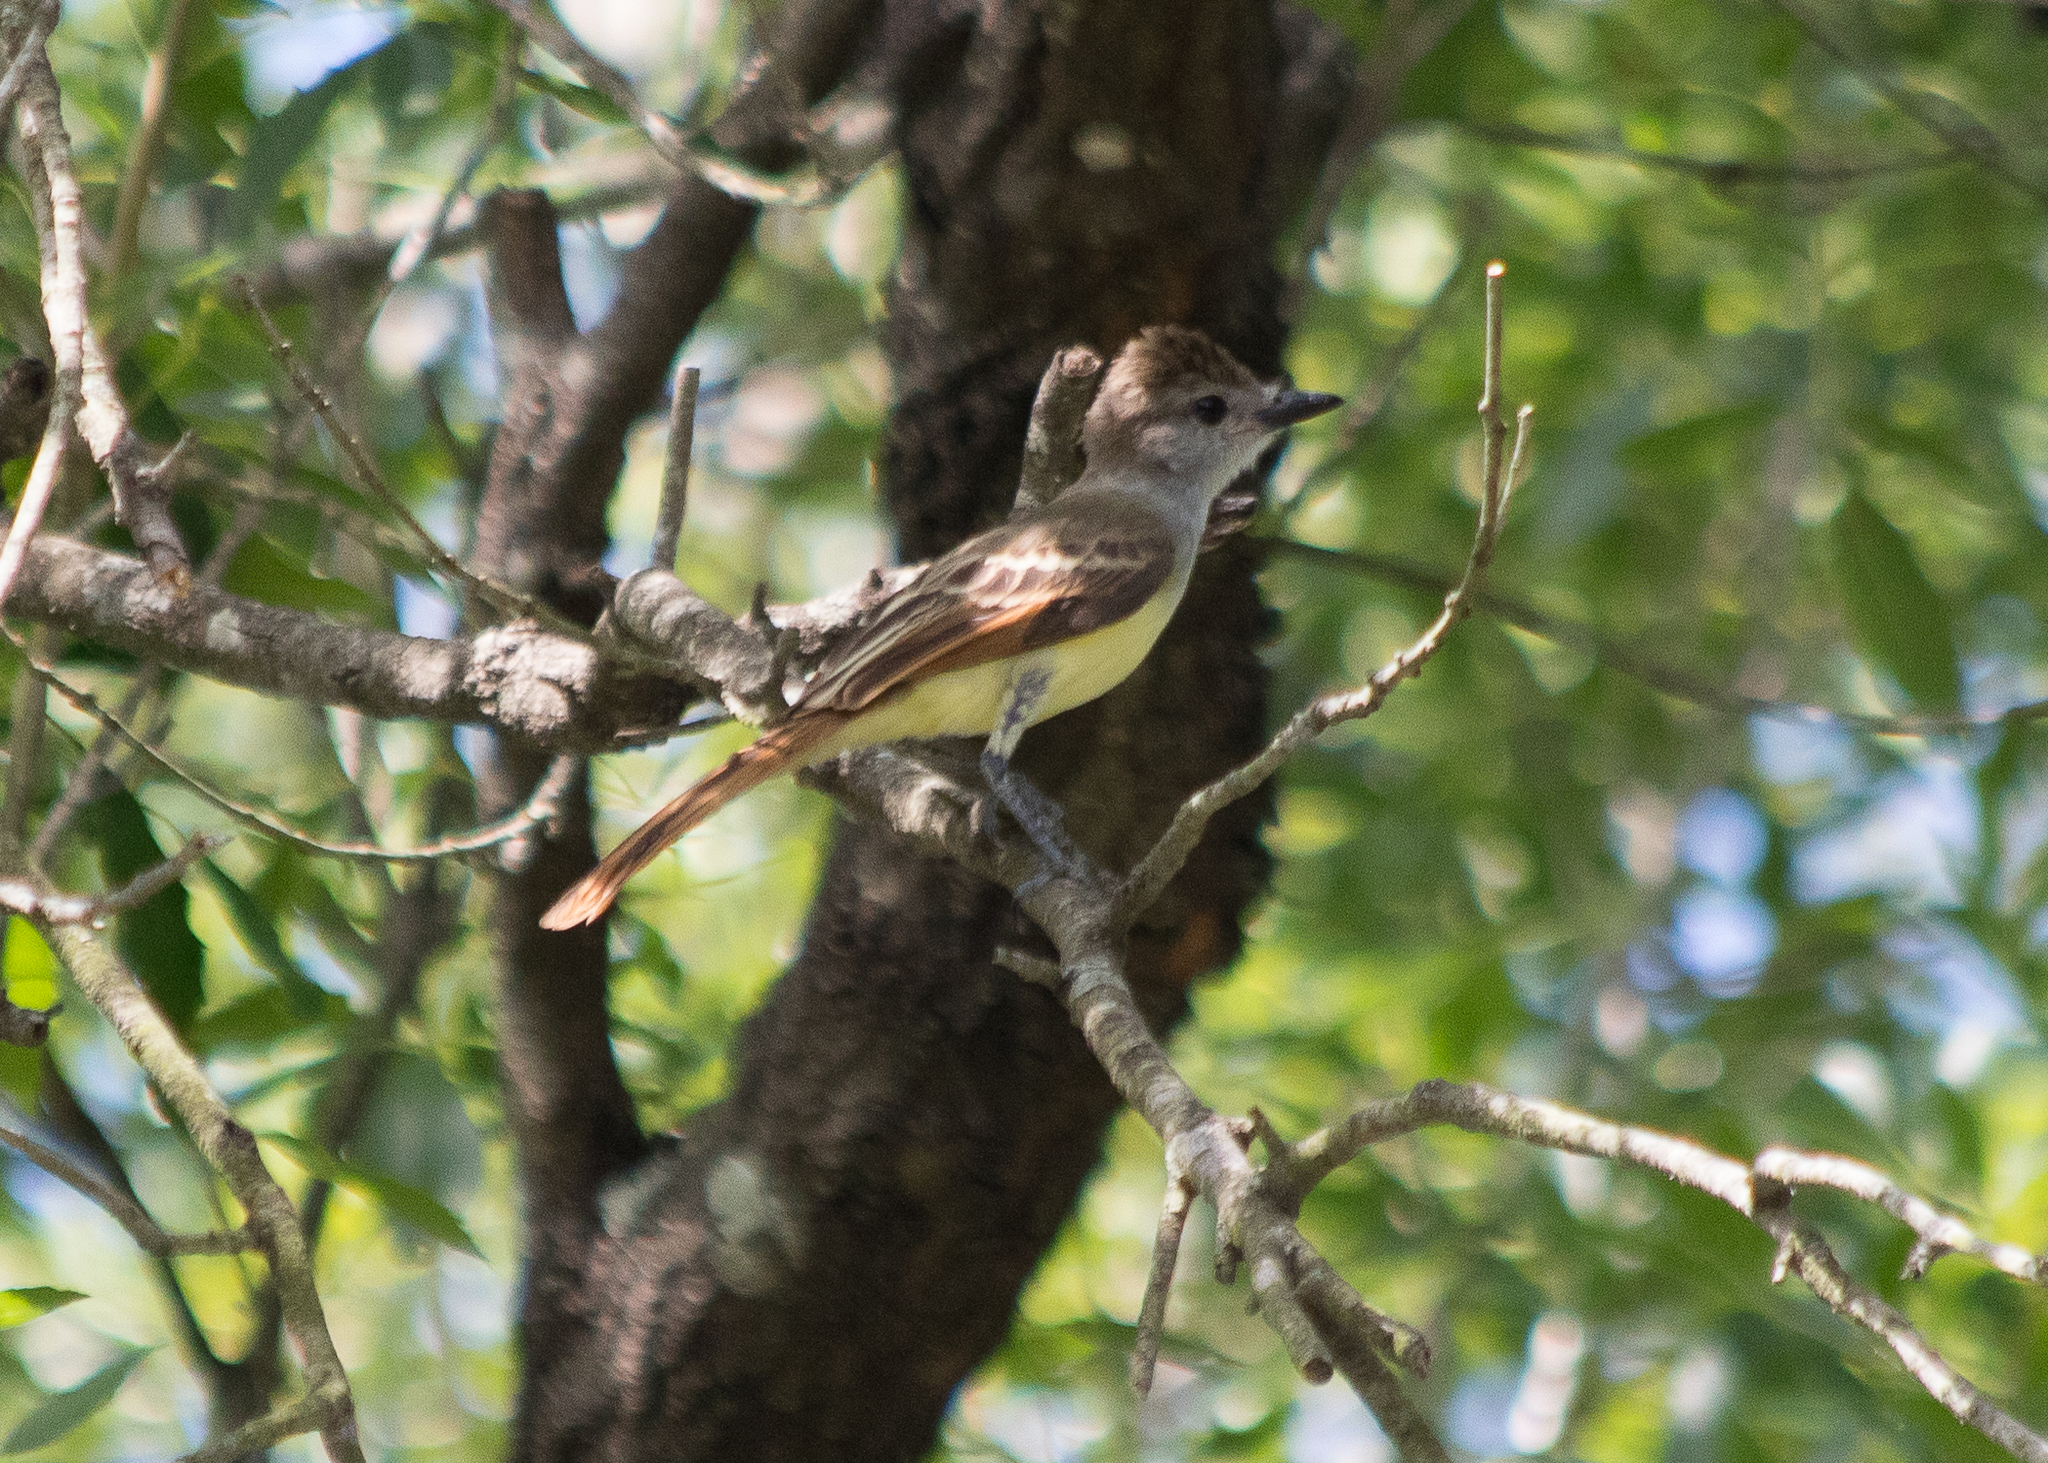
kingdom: Animalia
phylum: Chordata
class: Aves
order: Passeriformes
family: Tyrannidae
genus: Myiarchus
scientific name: Myiarchus tyrannulus
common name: Brown-crested flycatcher
